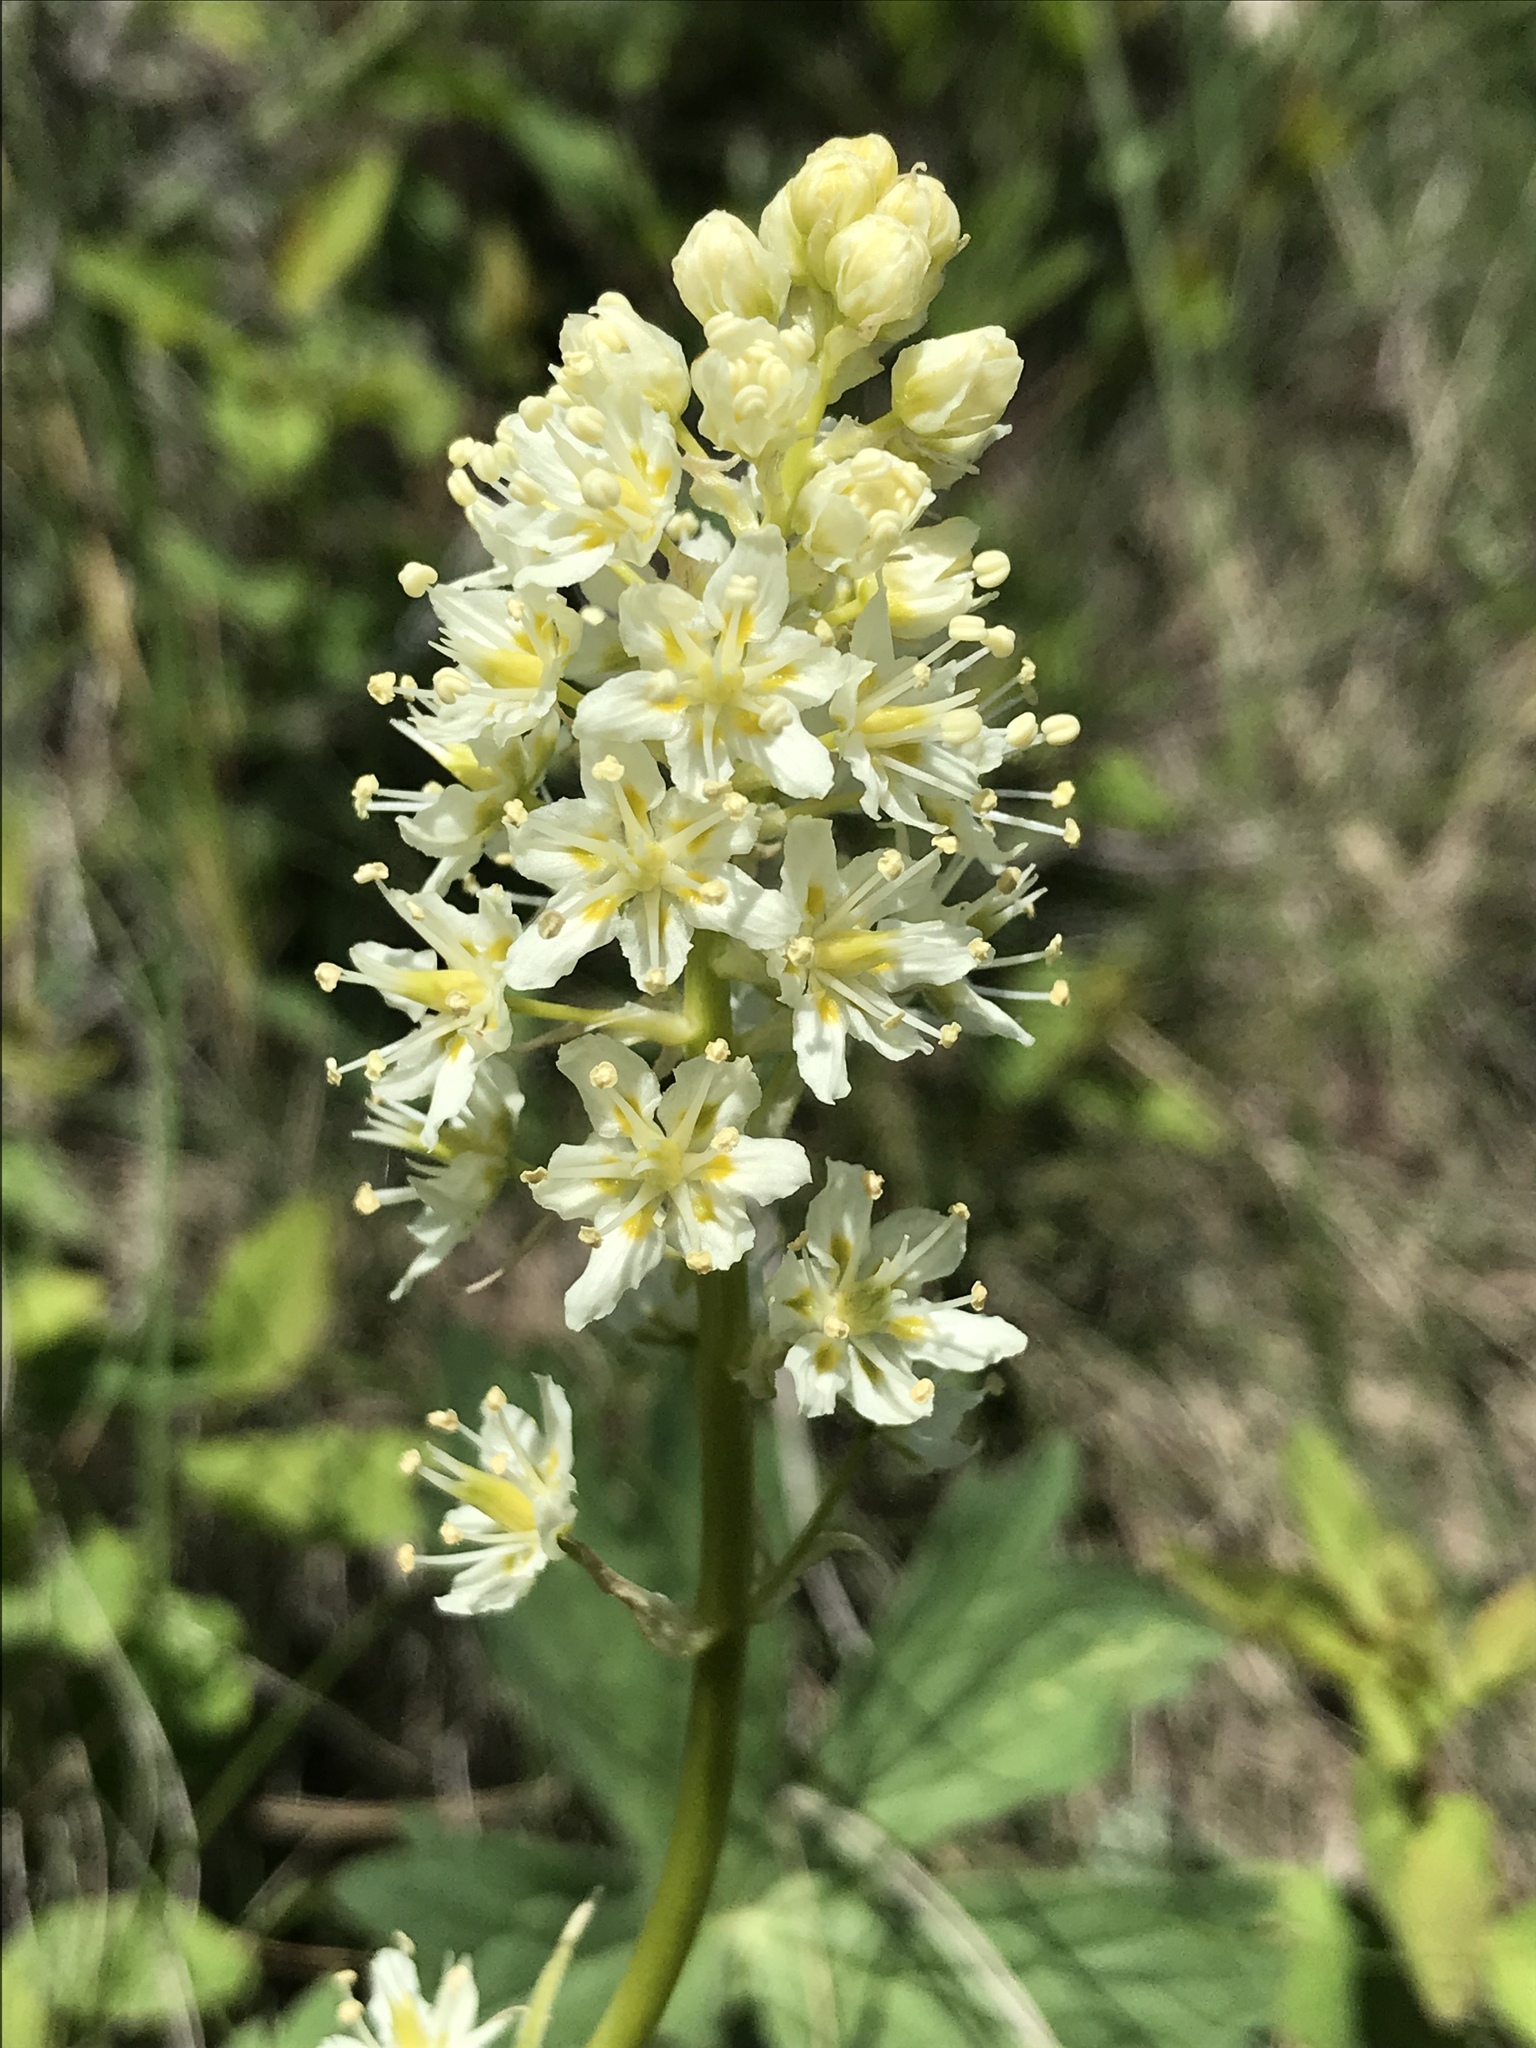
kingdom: Plantae
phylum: Tracheophyta
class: Liliopsida
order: Liliales
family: Melanthiaceae
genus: Toxicoscordion
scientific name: Toxicoscordion venenosum
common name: Meadow death camas
